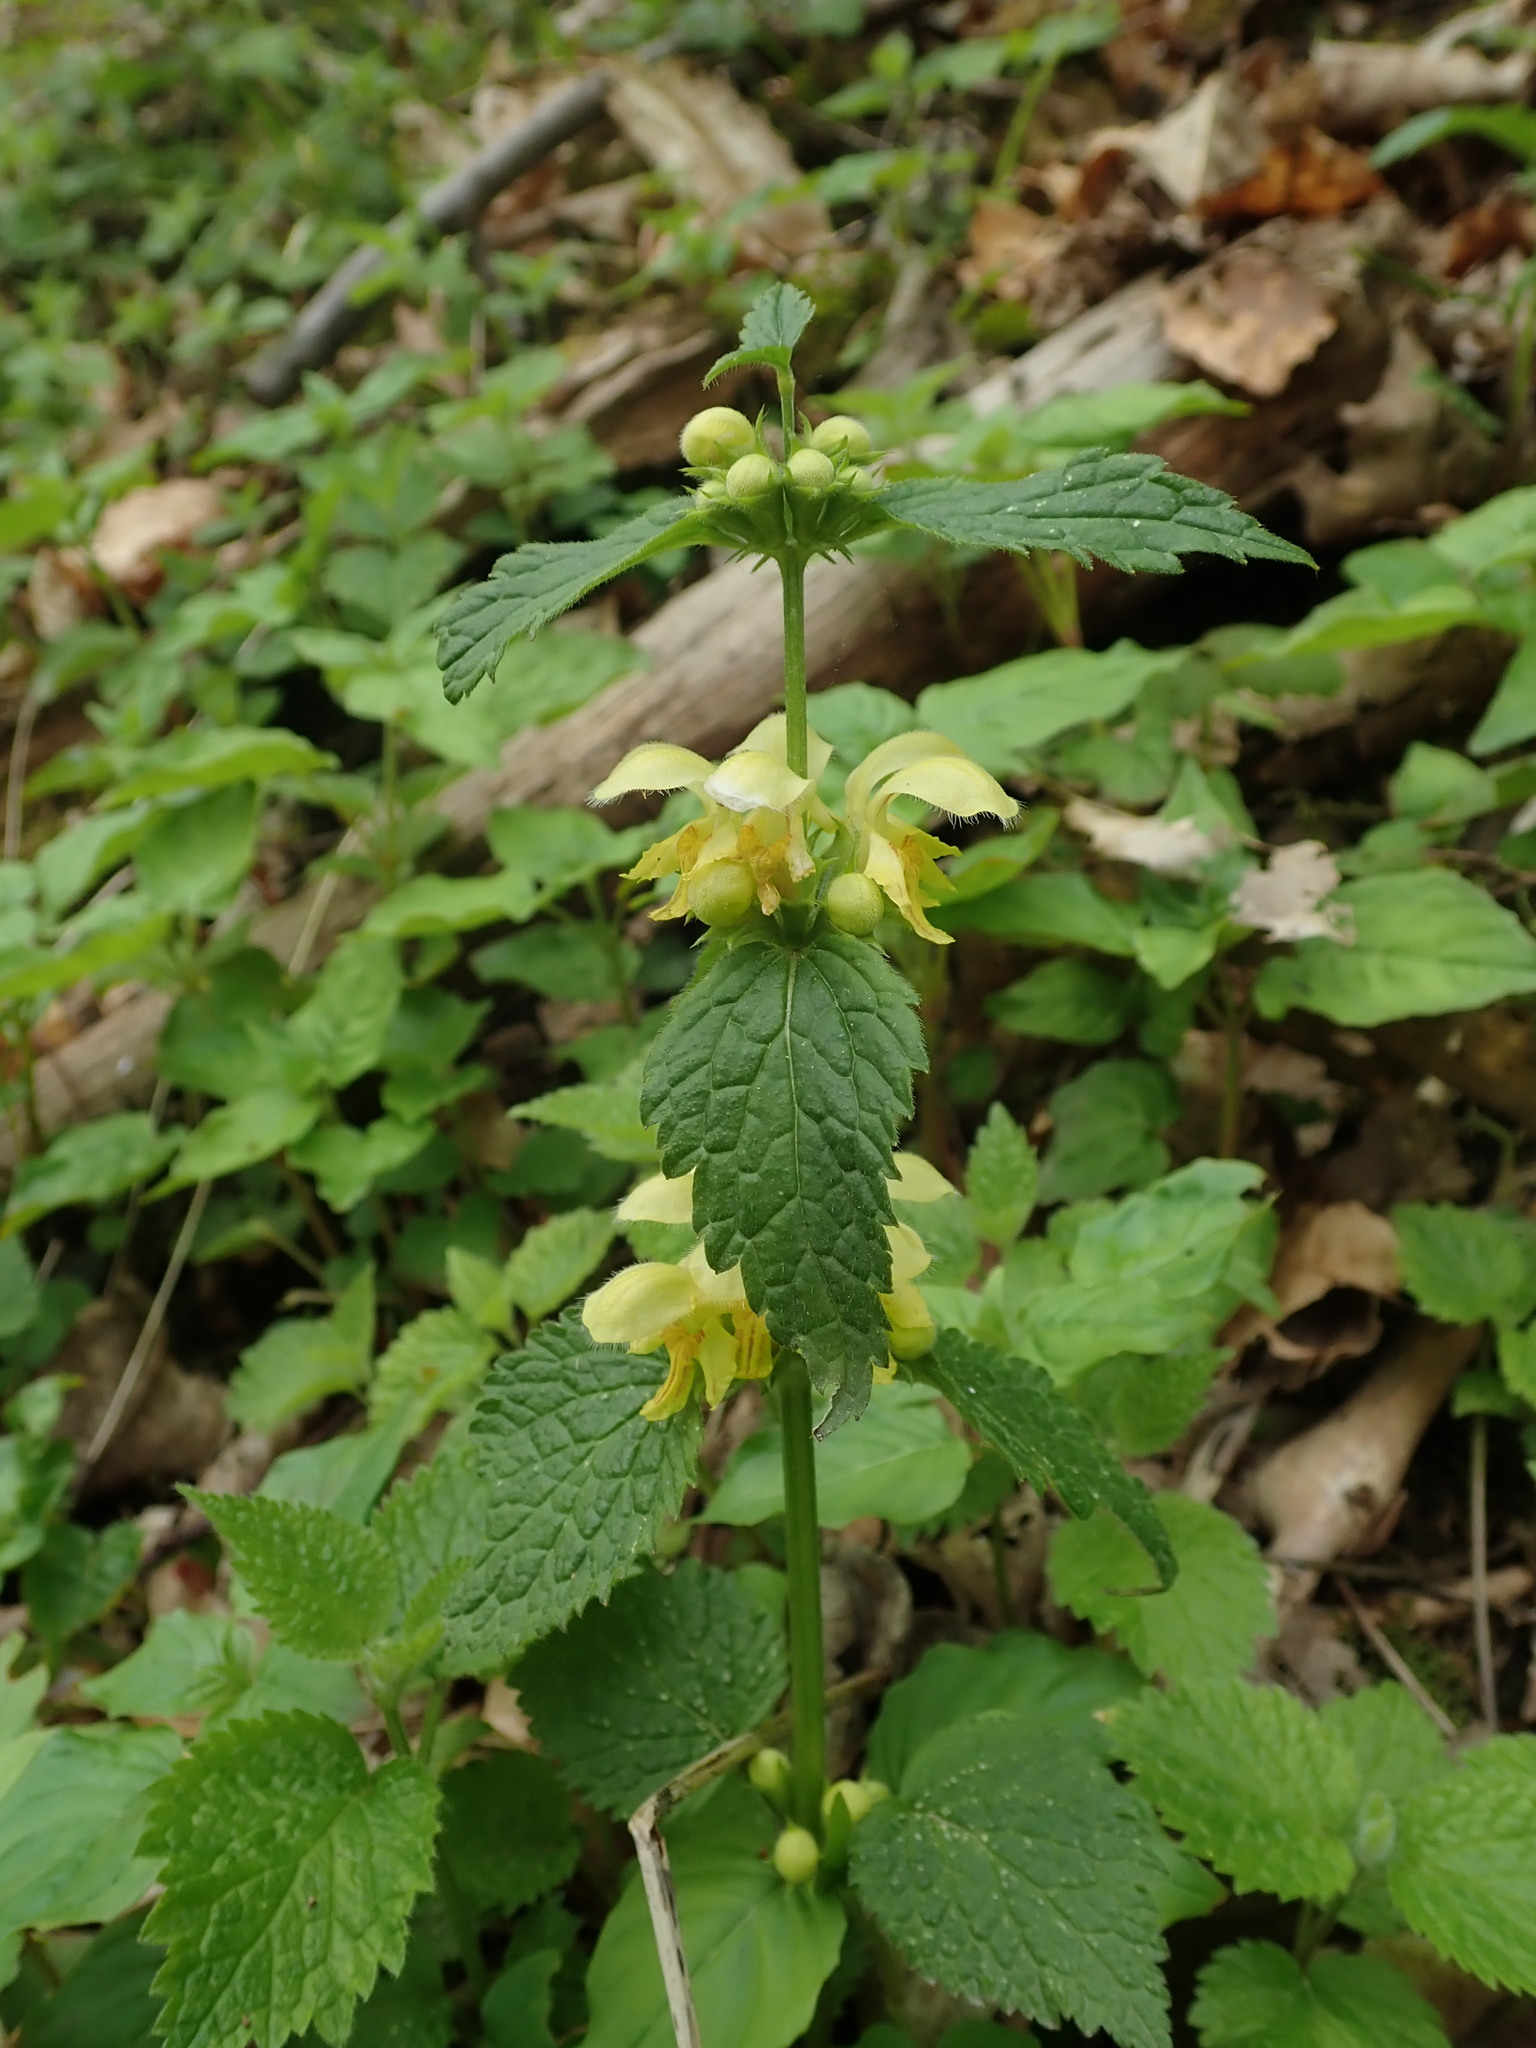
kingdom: Plantae
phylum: Tracheophyta
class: Magnoliopsida
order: Lamiales
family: Lamiaceae
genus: Lamium
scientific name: Lamium galeobdolon
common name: Yellow archangel
